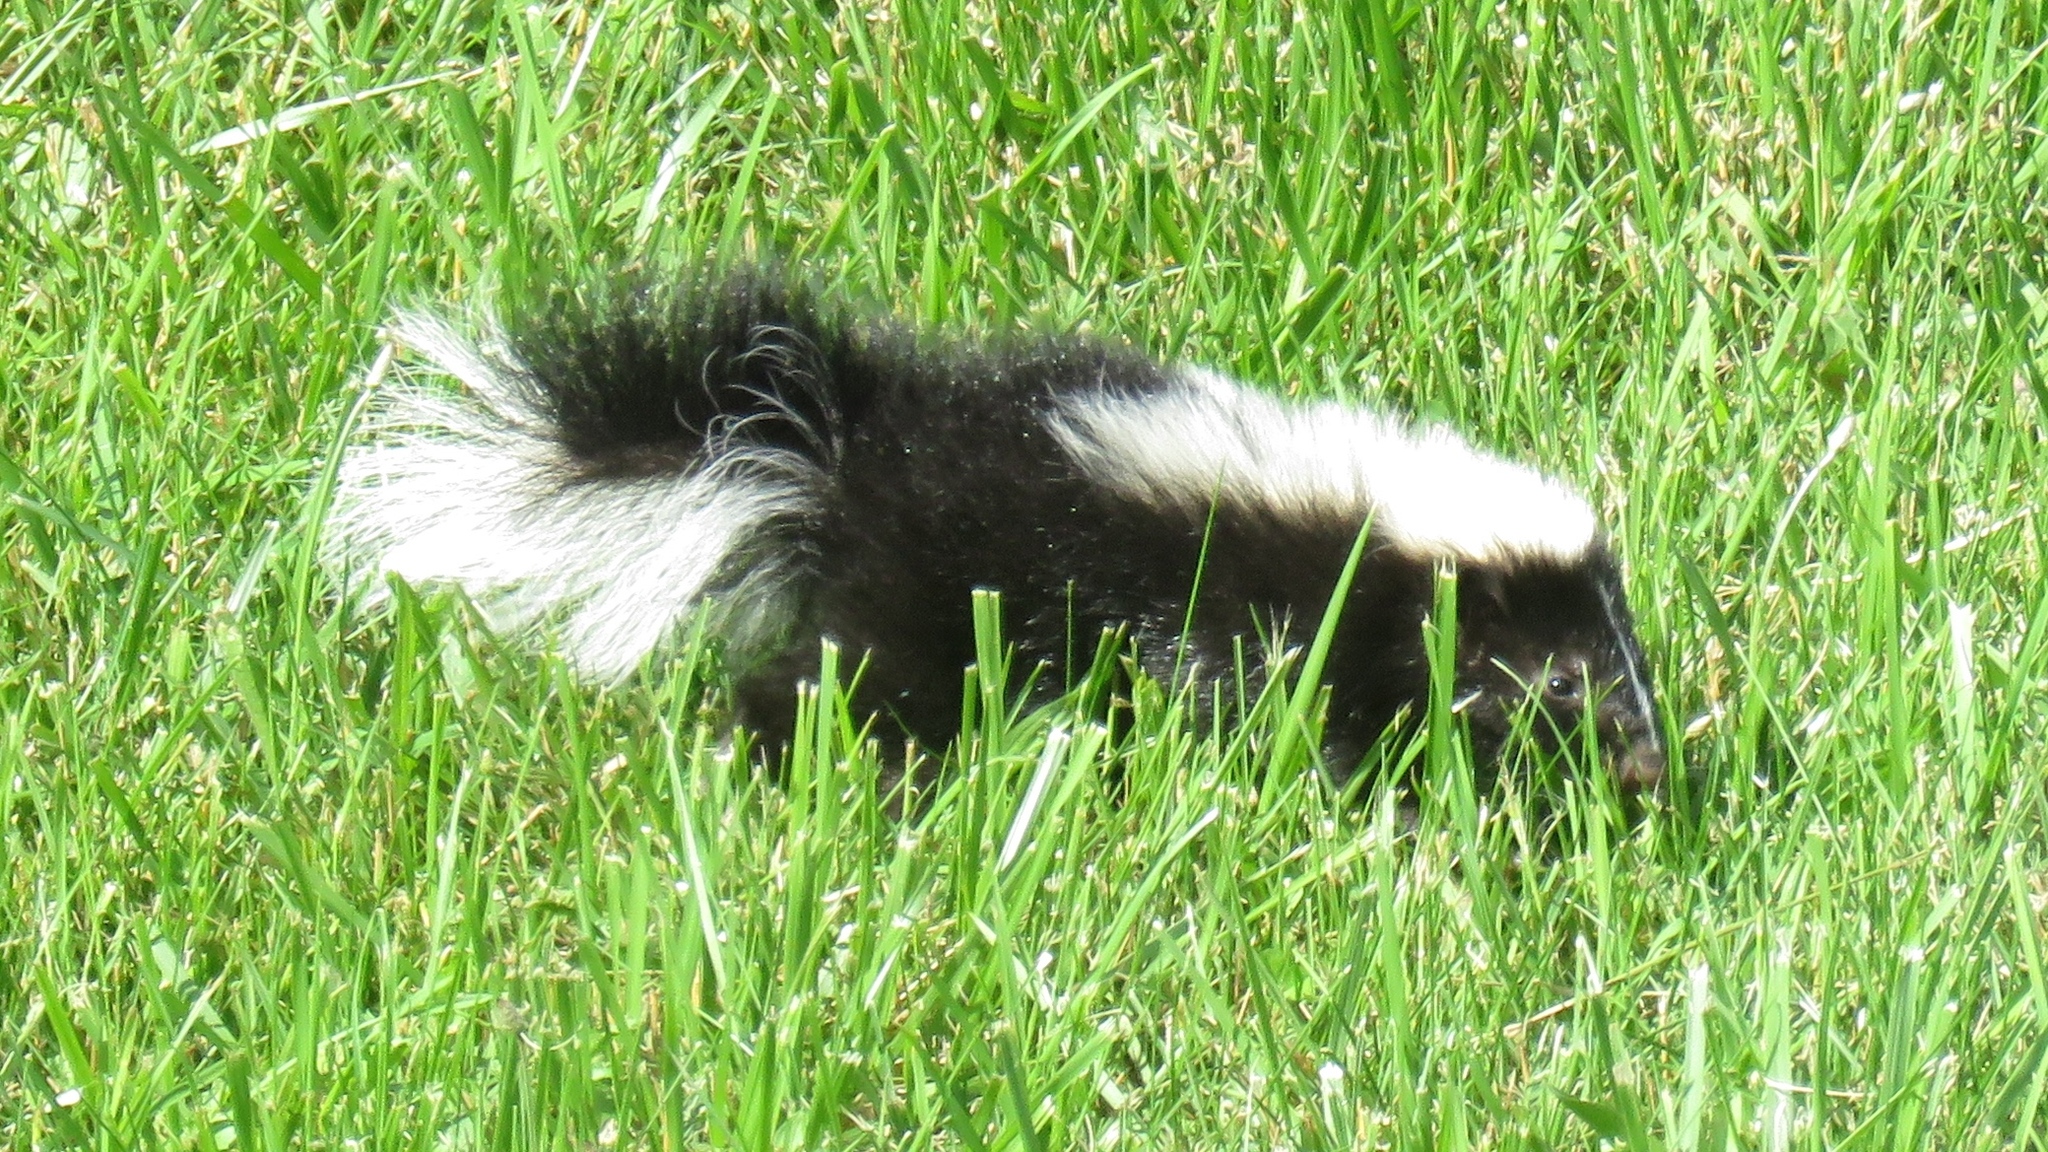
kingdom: Animalia
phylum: Chordata
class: Mammalia
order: Carnivora
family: Mephitidae
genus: Mephitis
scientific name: Mephitis mephitis
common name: Striped skunk
